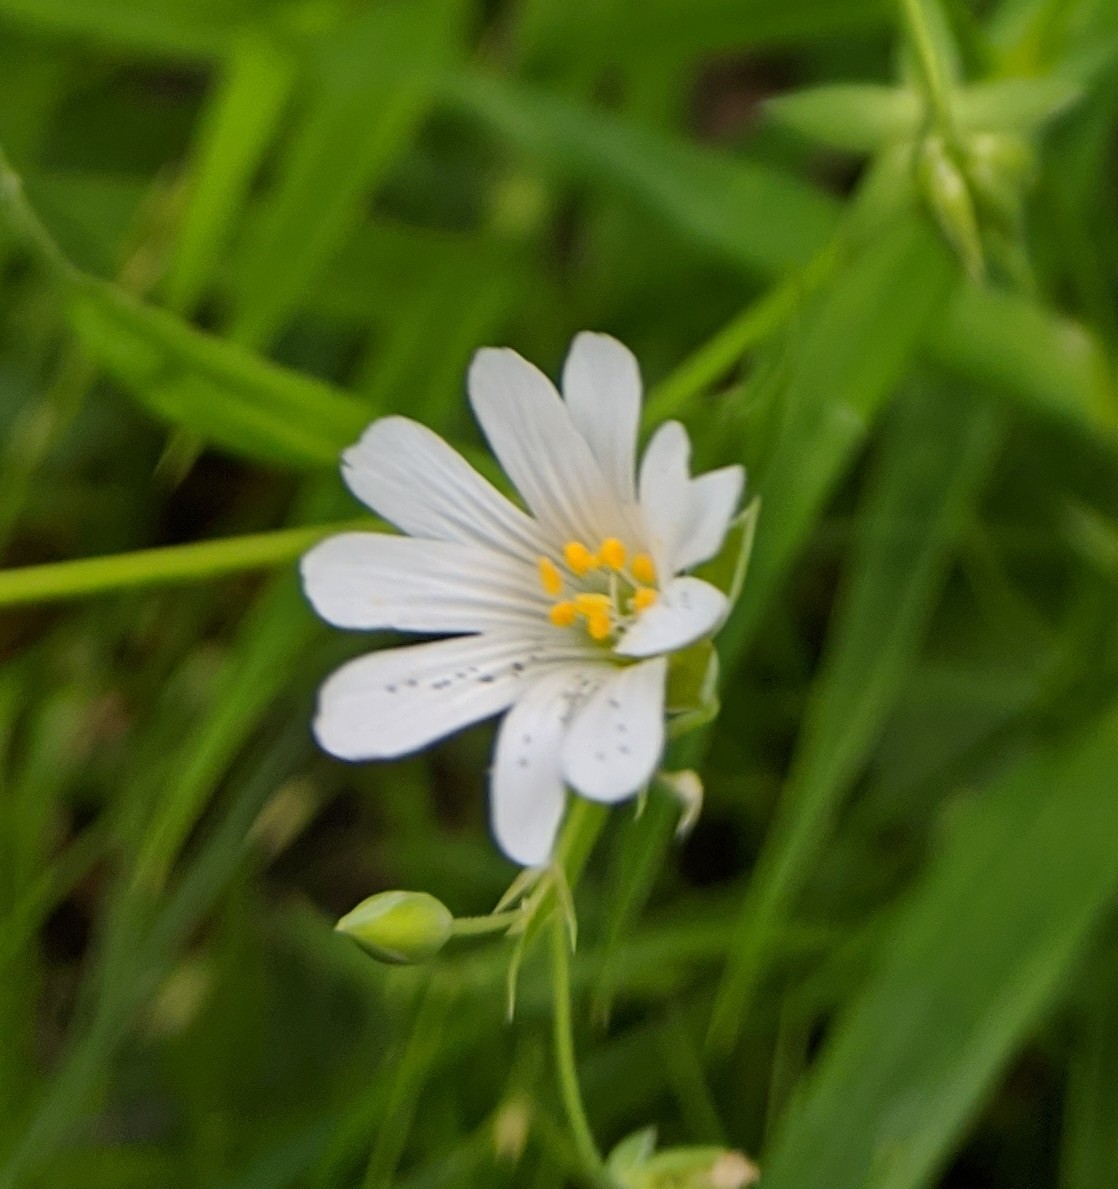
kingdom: Plantae
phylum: Tracheophyta
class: Magnoliopsida
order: Caryophyllales
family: Caryophyllaceae
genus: Rabelera
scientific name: Rabelera holostea
